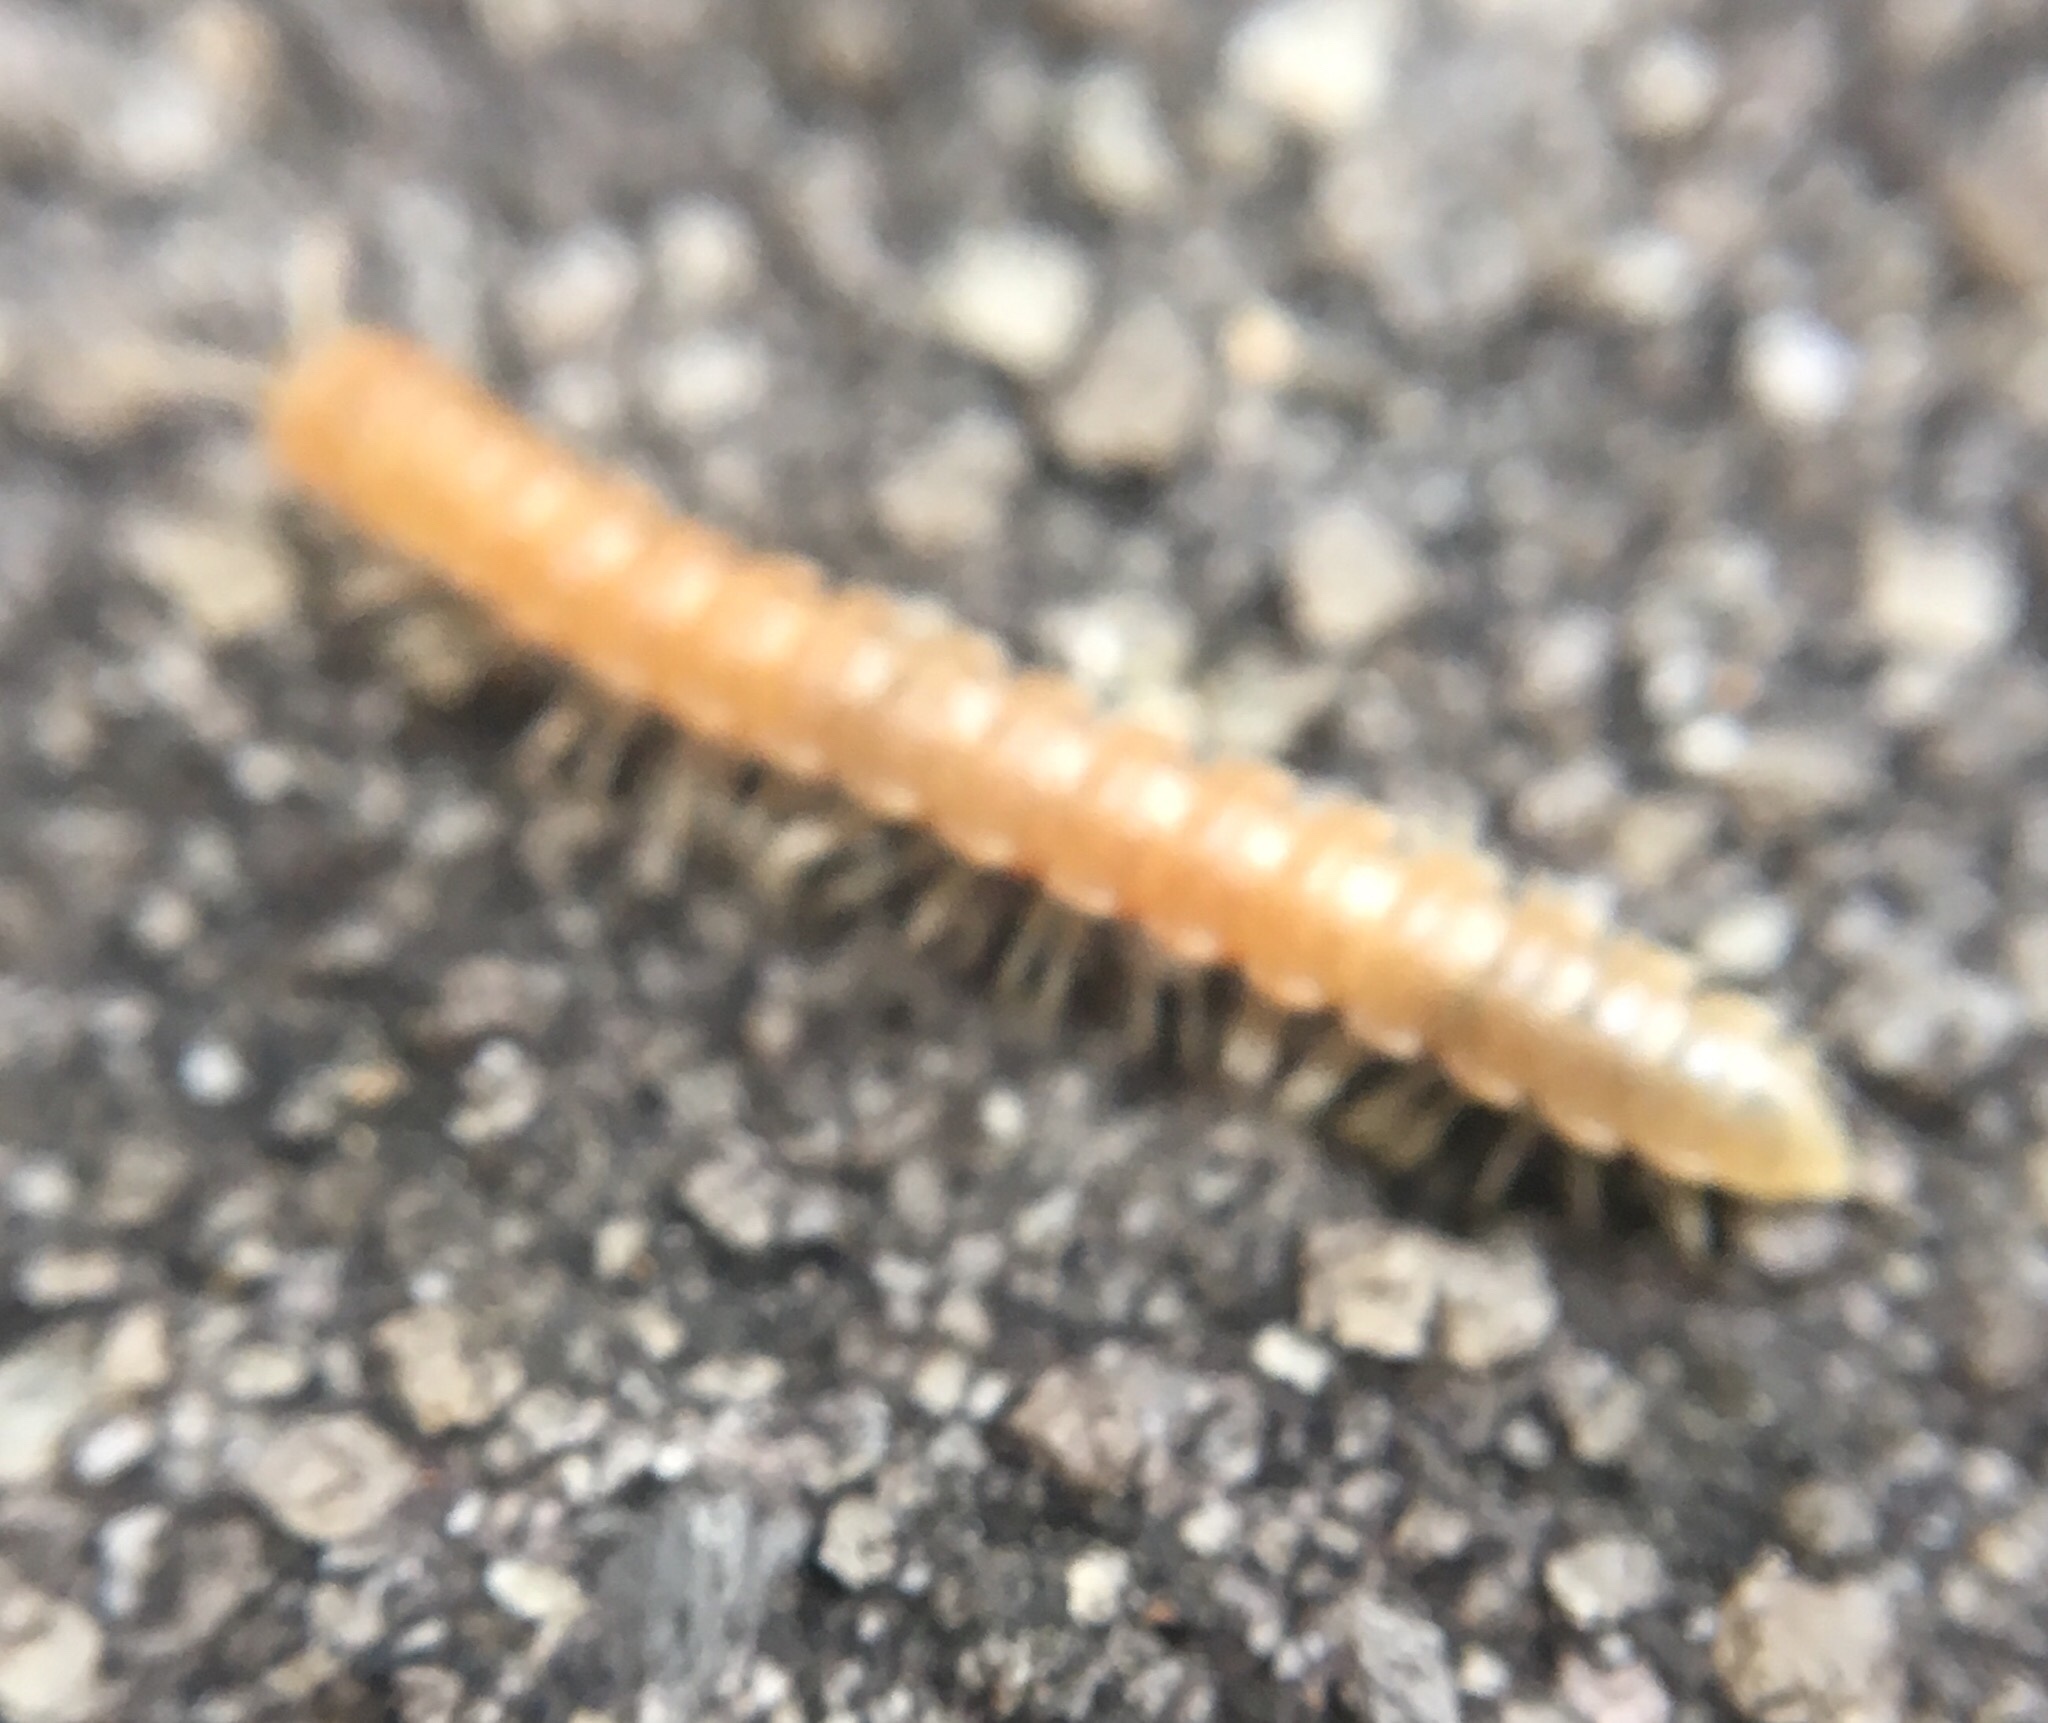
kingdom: Animalia
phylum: Arthropoda
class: Diplopoda
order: Polydesmida
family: Paradoxosomatidae
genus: Oxidus
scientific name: Oxidus gracilis
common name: Greenhouse millipede
